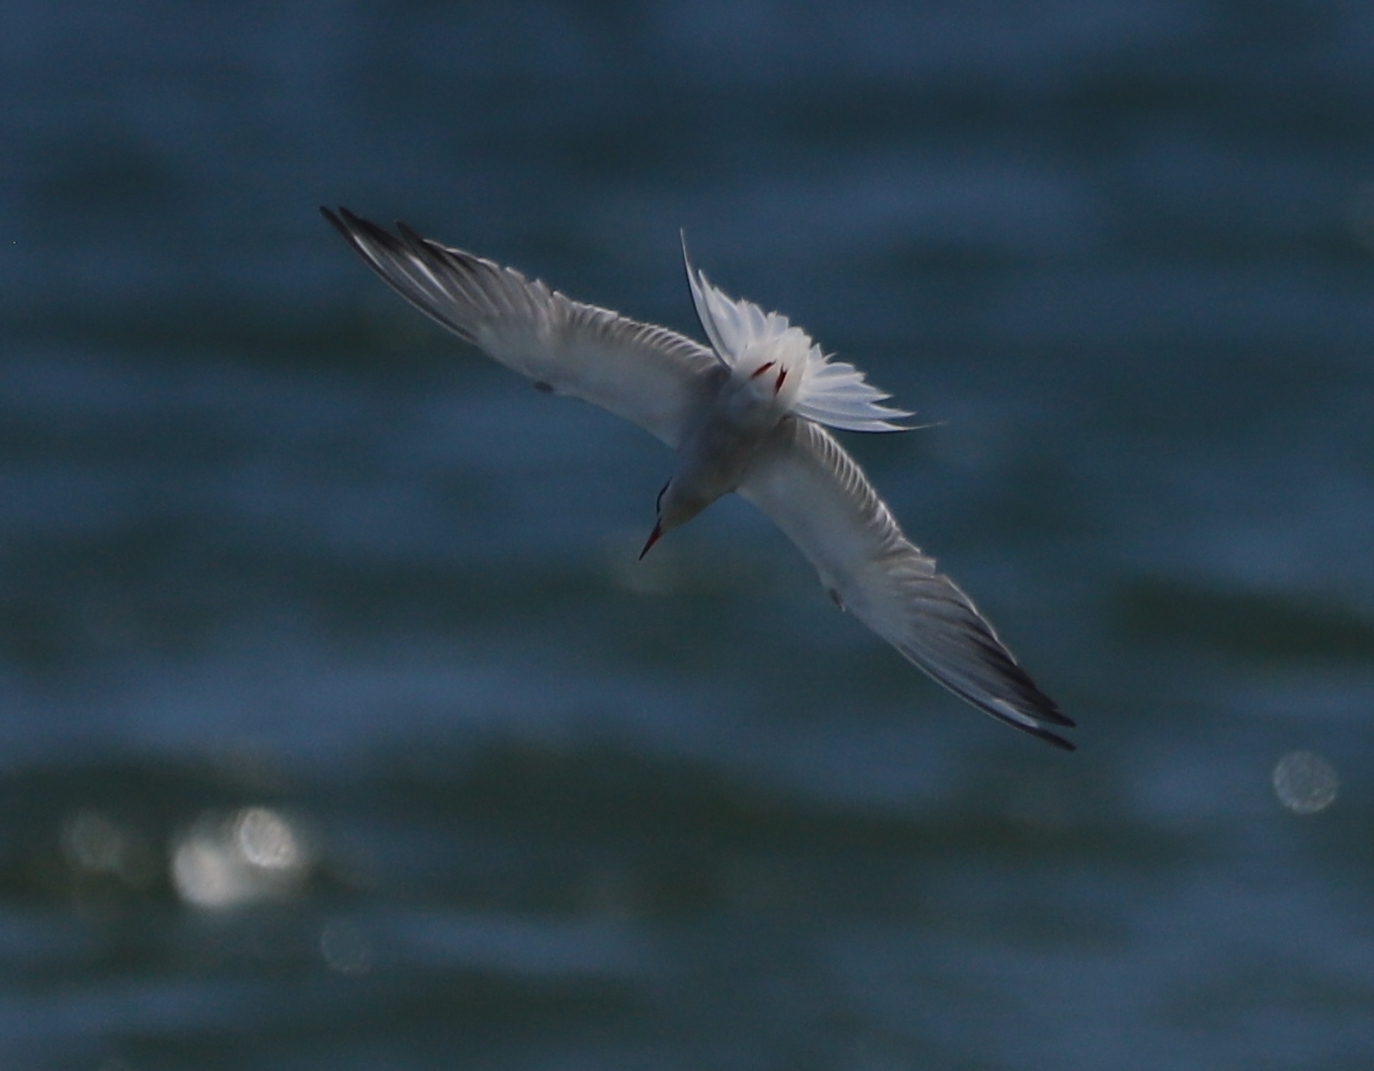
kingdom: Animalia
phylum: Chordata
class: Aves
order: Charadriiformes
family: Laridae
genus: Sterna
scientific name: Sterna hirundo
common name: Common tern
